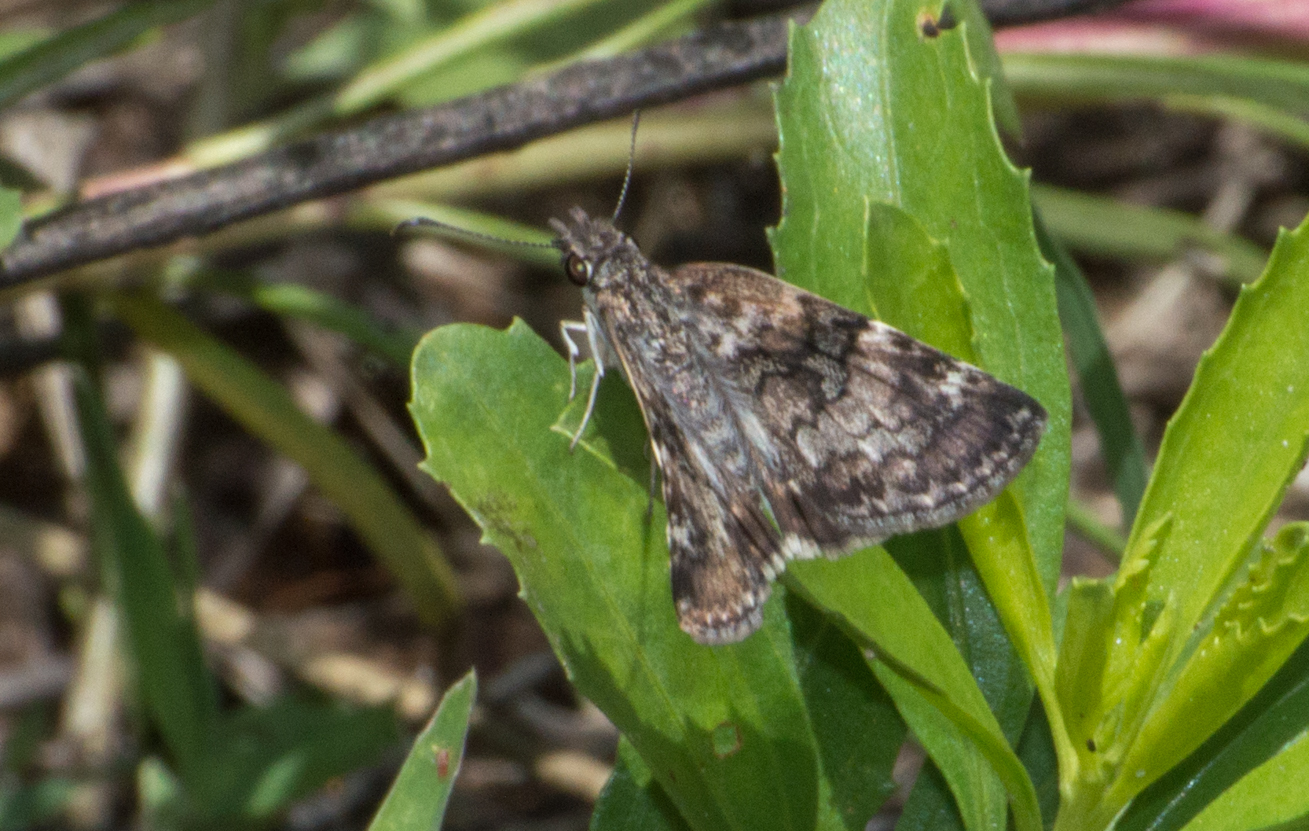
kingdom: Animalia
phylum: Arthropoda
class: Insecta
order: Lepidoptera
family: Hesperiidae
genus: Chiomara
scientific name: Chiomara asychis
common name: White-patterned skipper
